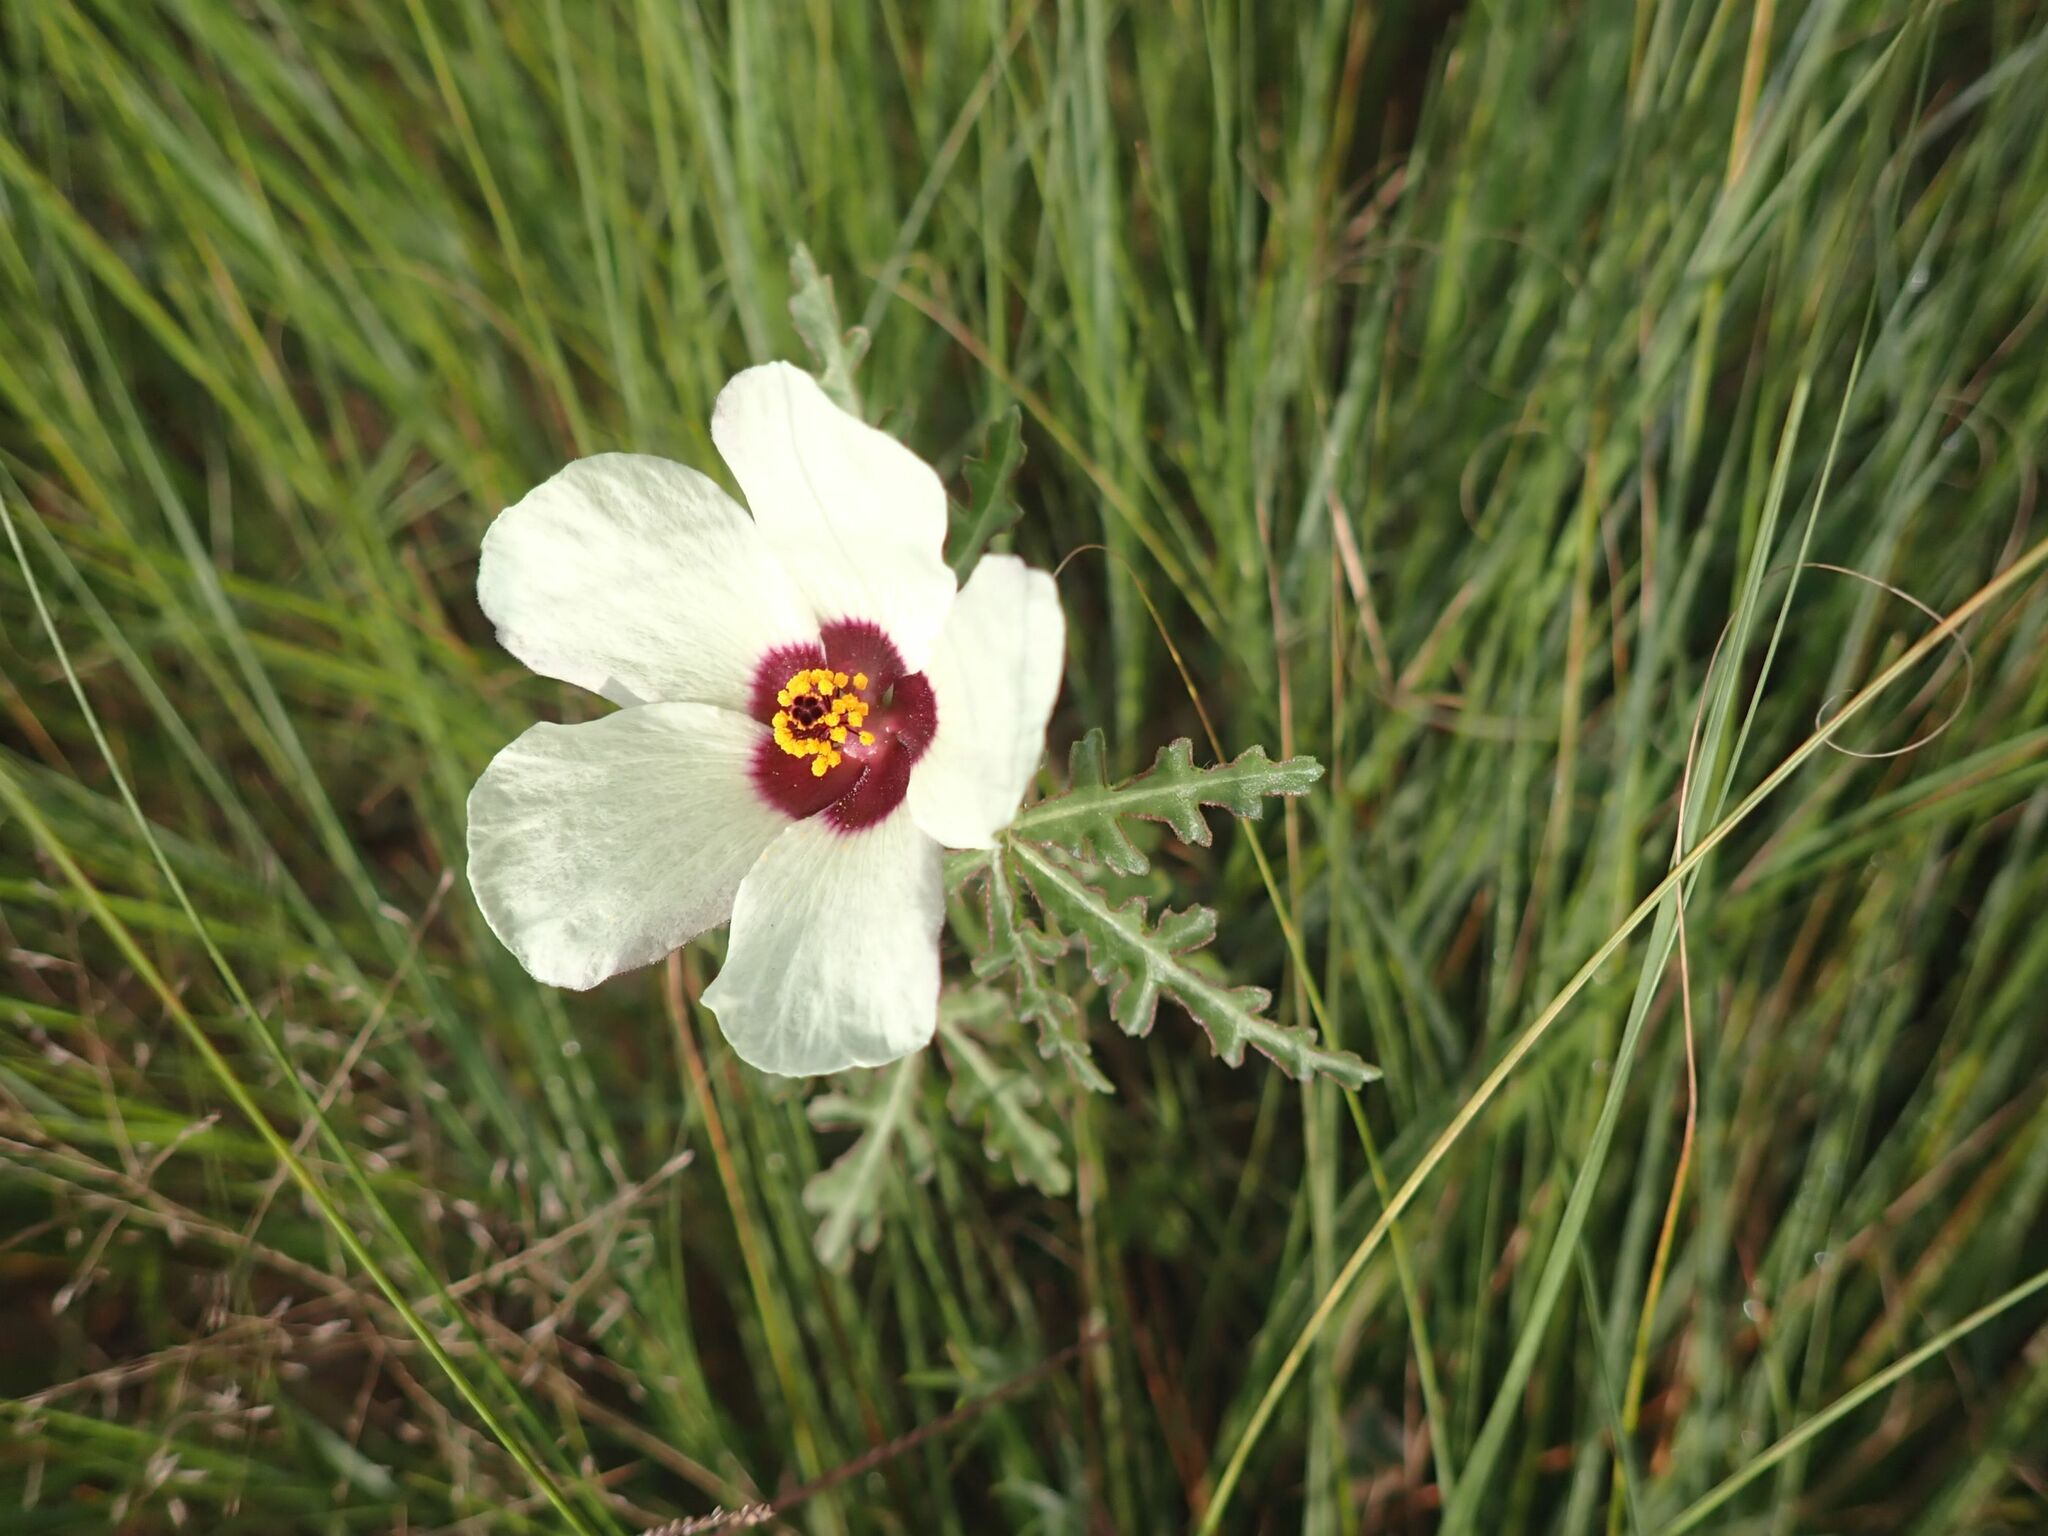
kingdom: Plantae
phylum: Tracheophyta
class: Magnoliopsida
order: Malvales
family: Malvaceae
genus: Hibiscus
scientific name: Hibiscus trionum
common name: Bladder ketmia
